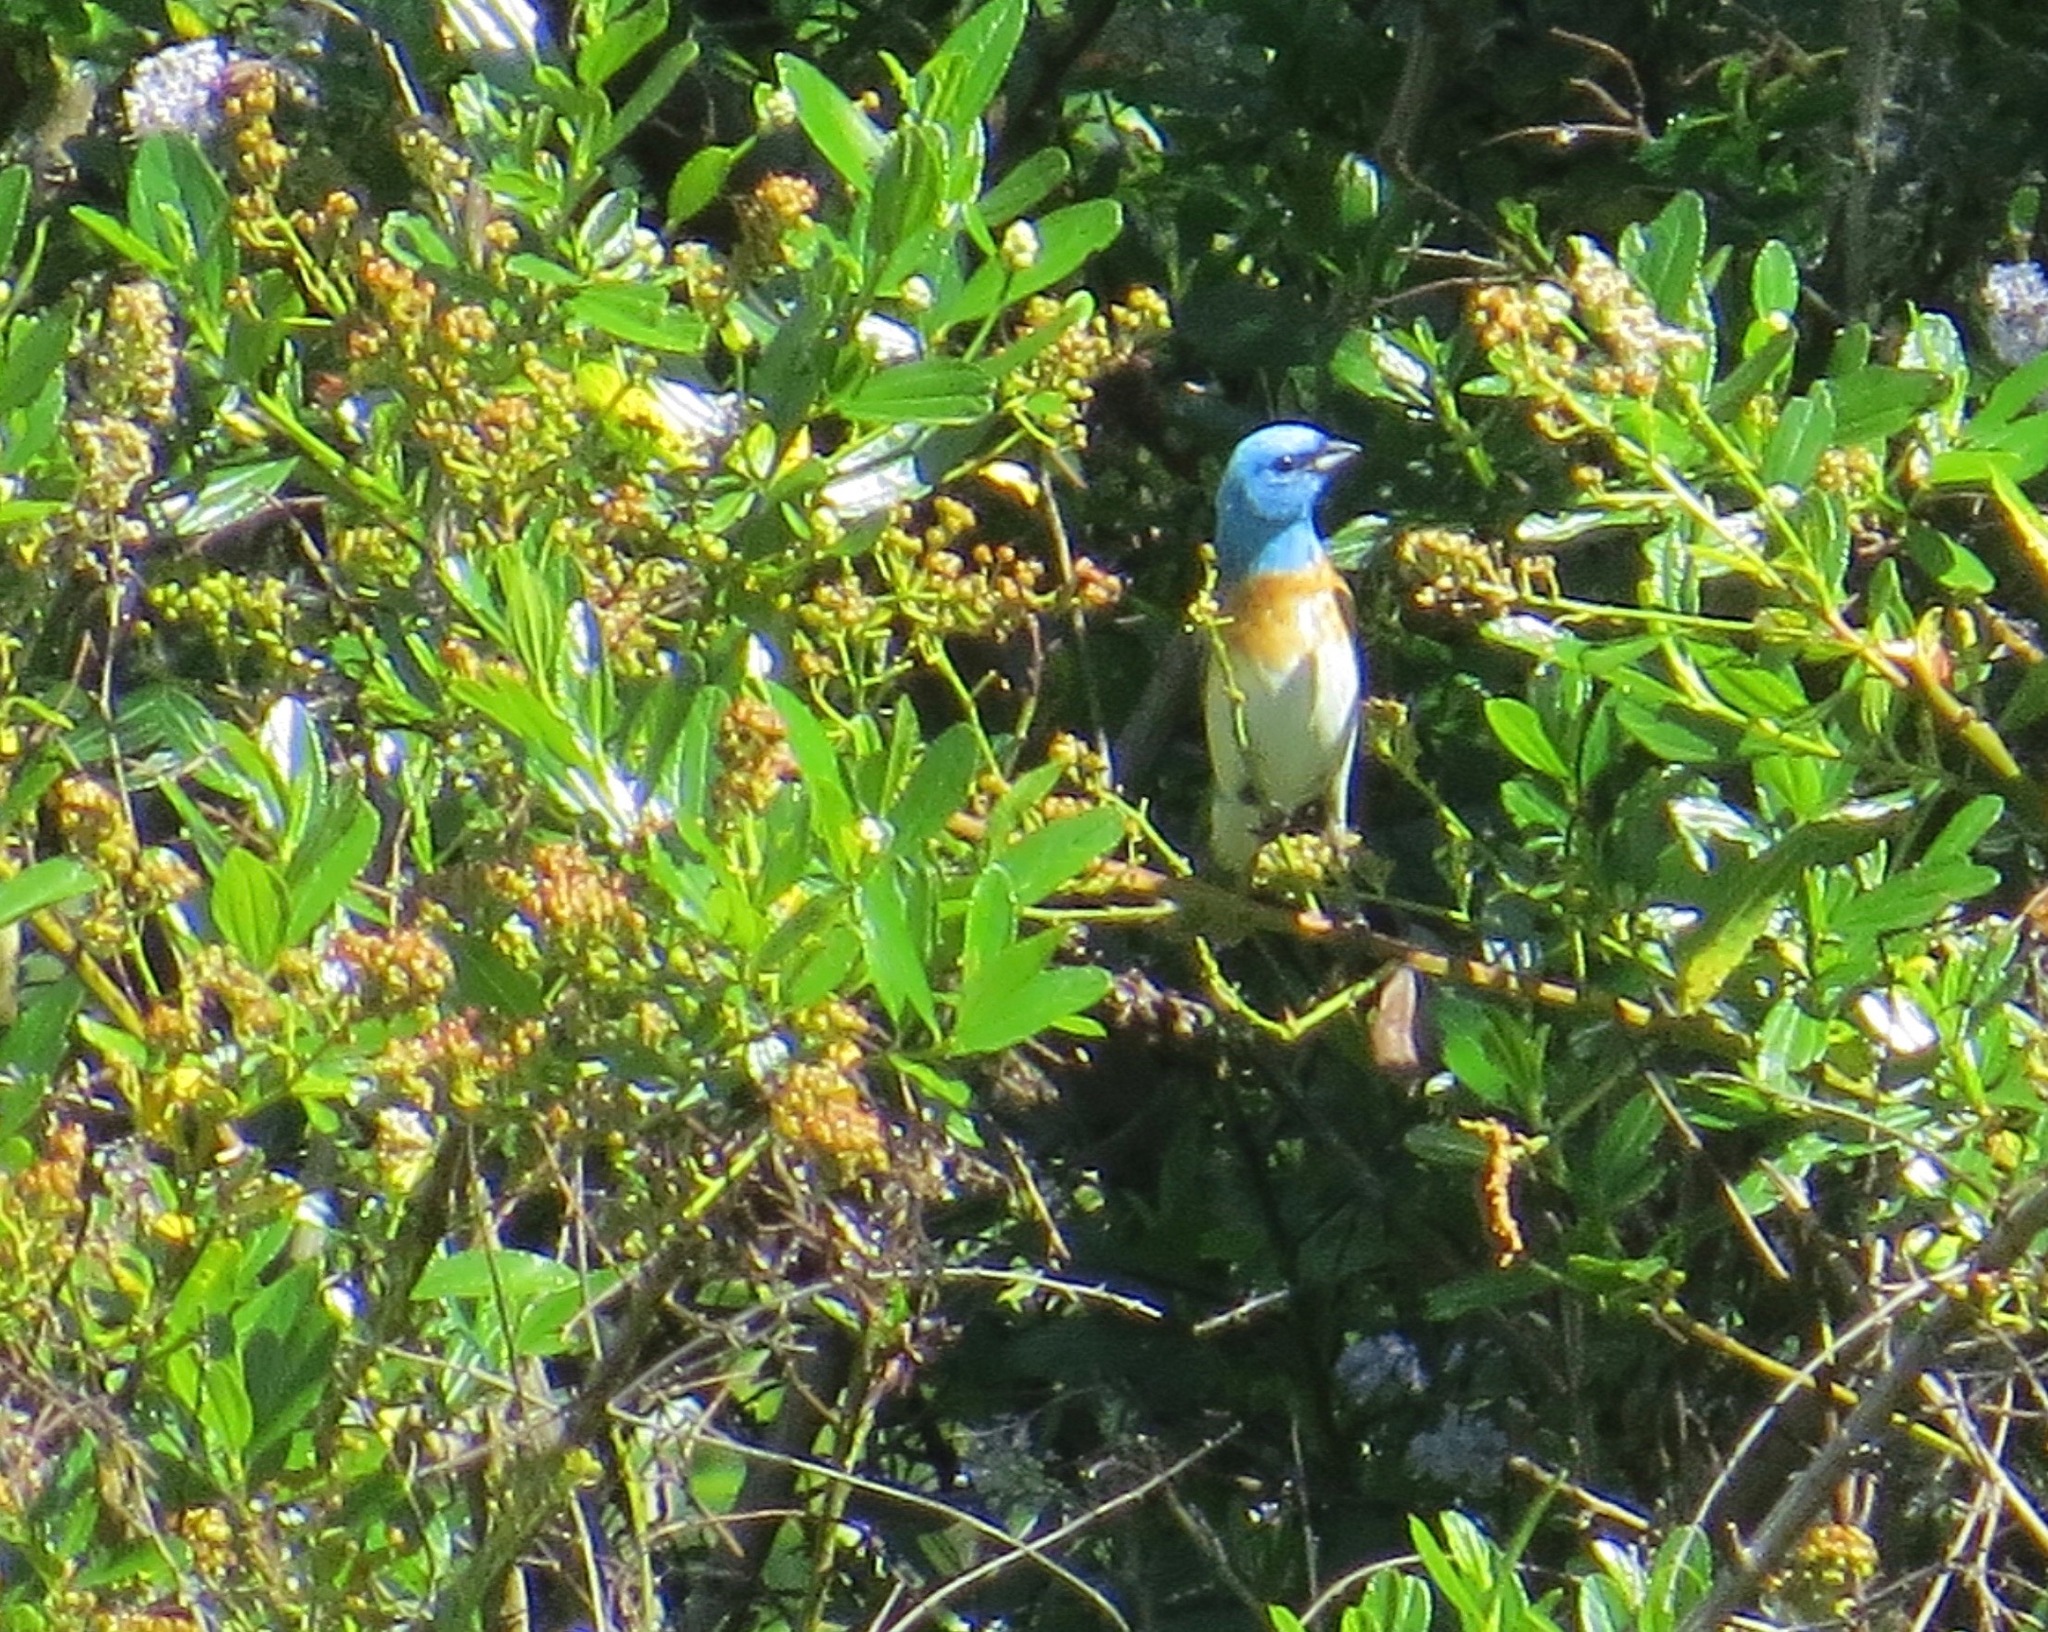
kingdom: Animalia
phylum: Chordata
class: Aves
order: Passeriformes
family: Cardinalidae
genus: Passerina
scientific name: Passerina amoena
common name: Lazuli bunting
